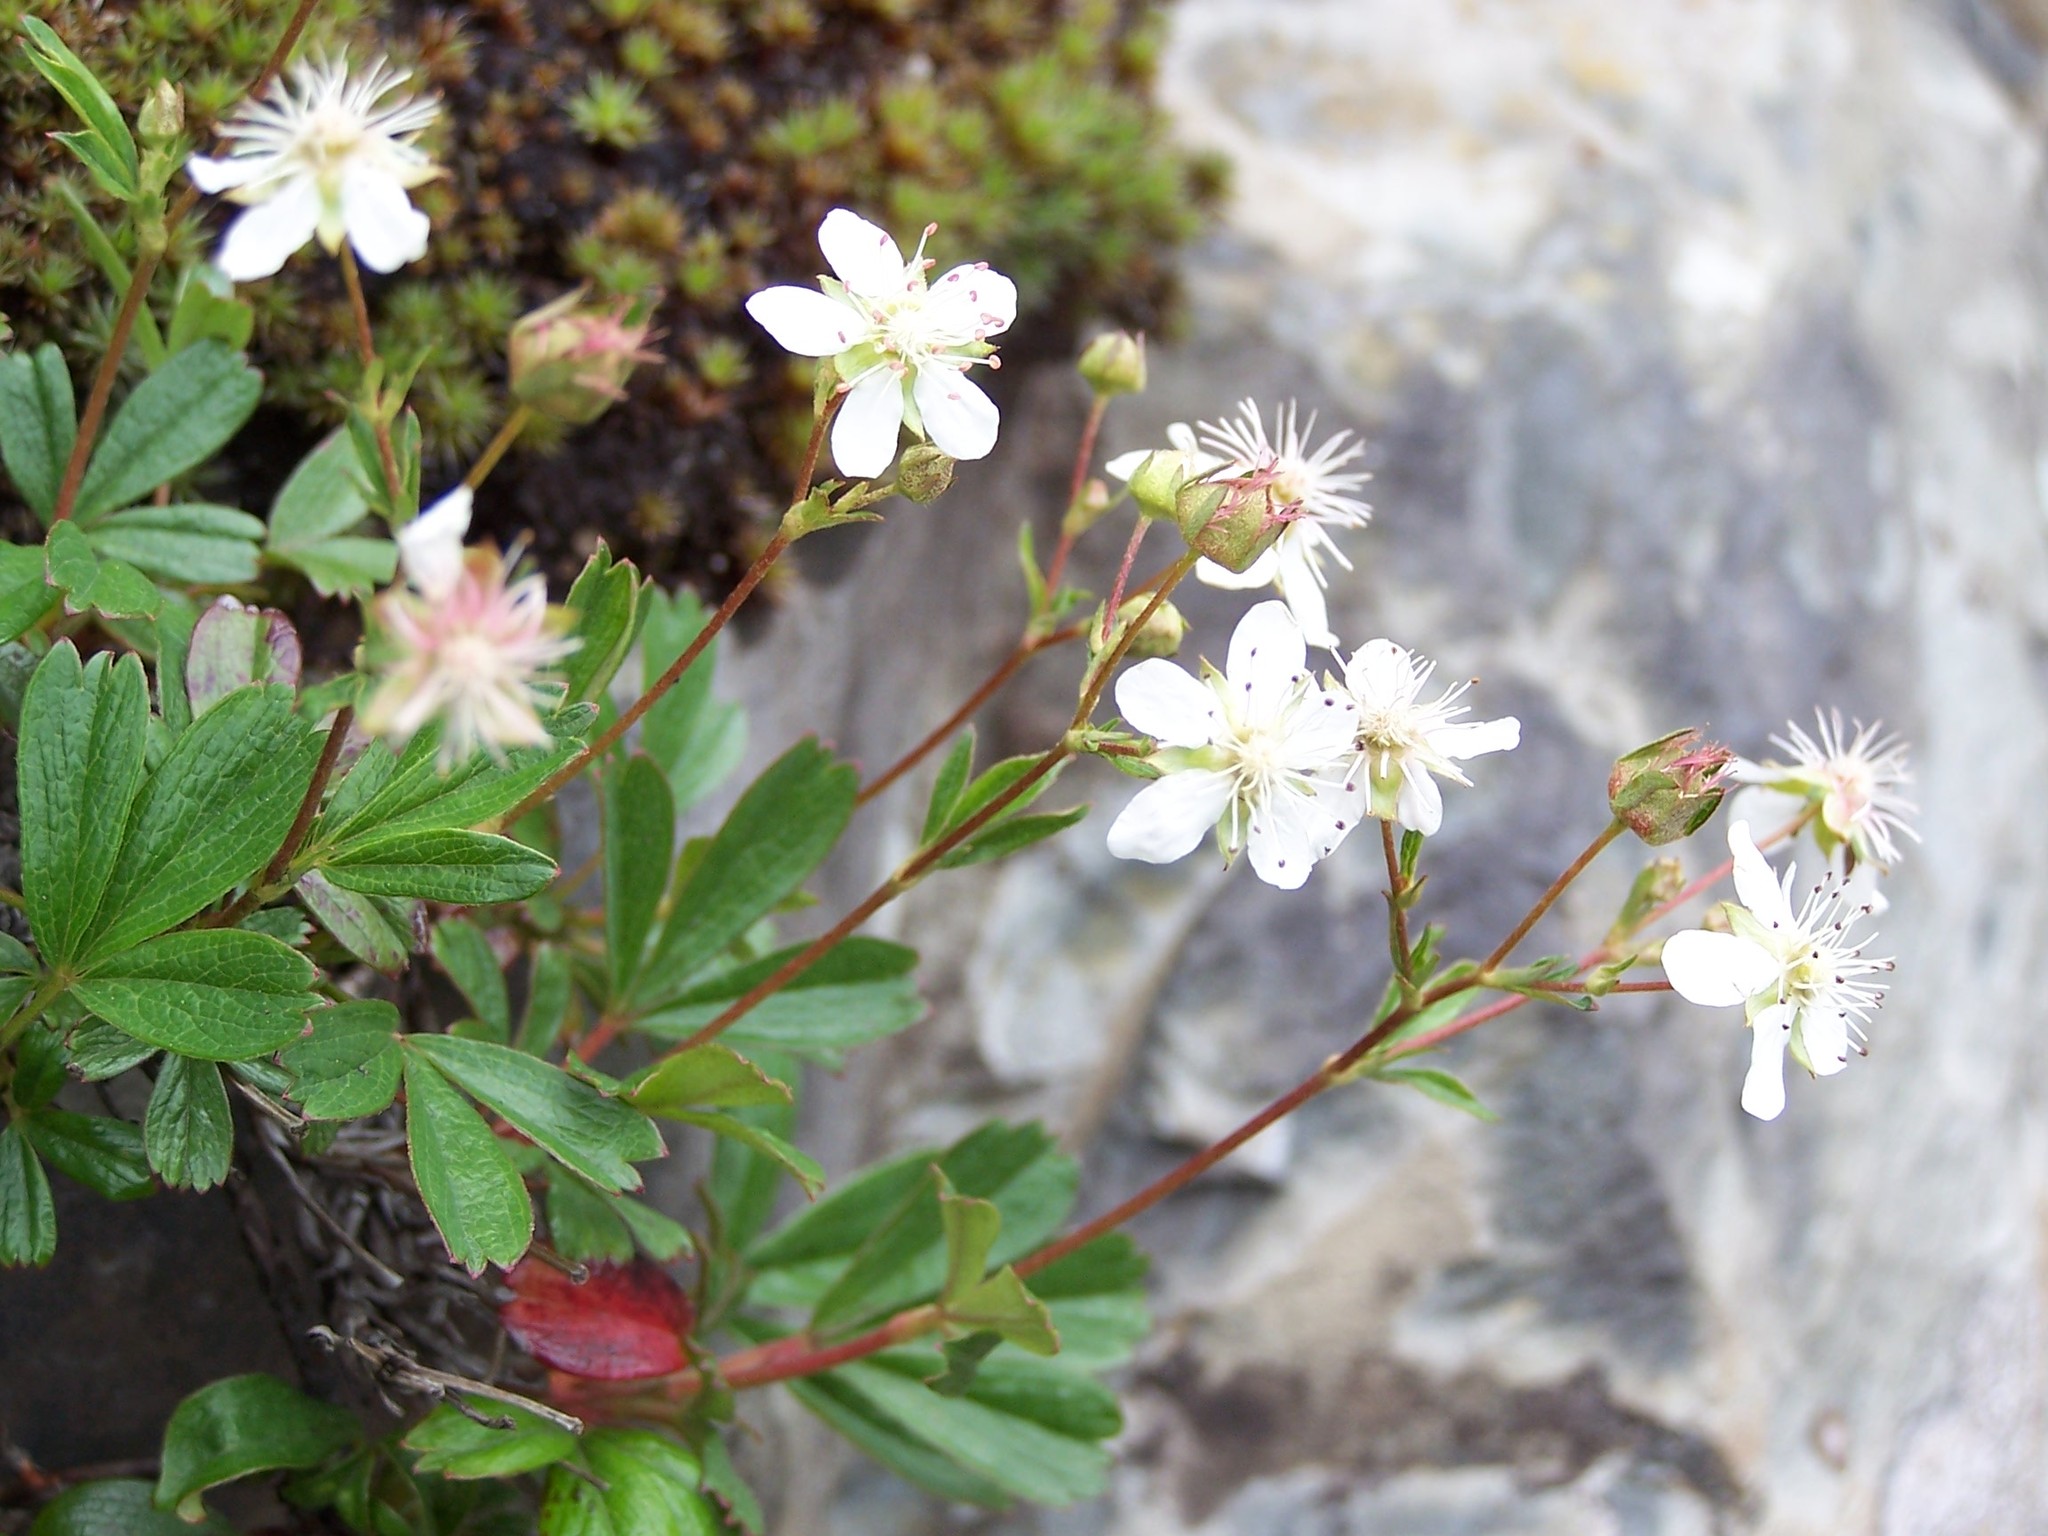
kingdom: Plantae
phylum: Tracheophyta
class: Magnoliopsida
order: Rosales
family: Rosaceae
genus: Sibbaldia
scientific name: Sibbaldia tridentata
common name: Three-toothed cinquefoil
